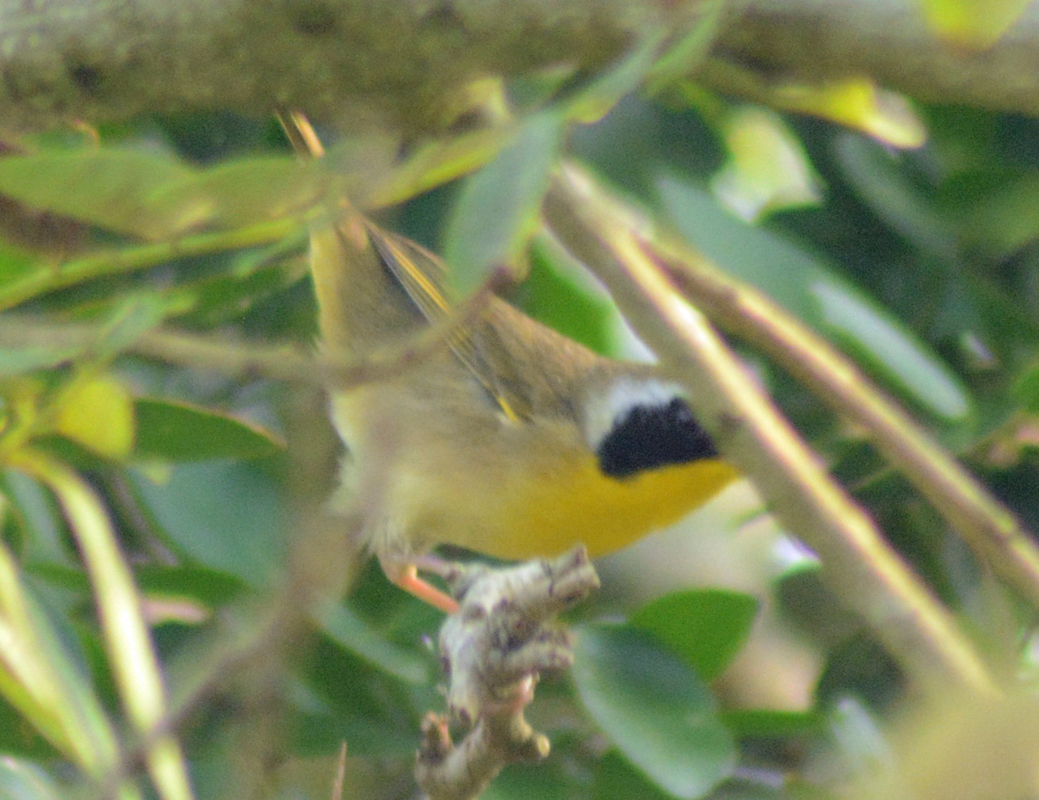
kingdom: Animalia
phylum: Chordata
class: Aves
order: Passeriformes
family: Parulidae
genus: Geothlypis
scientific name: Geothlypis trichas
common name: Common yellowthroat
